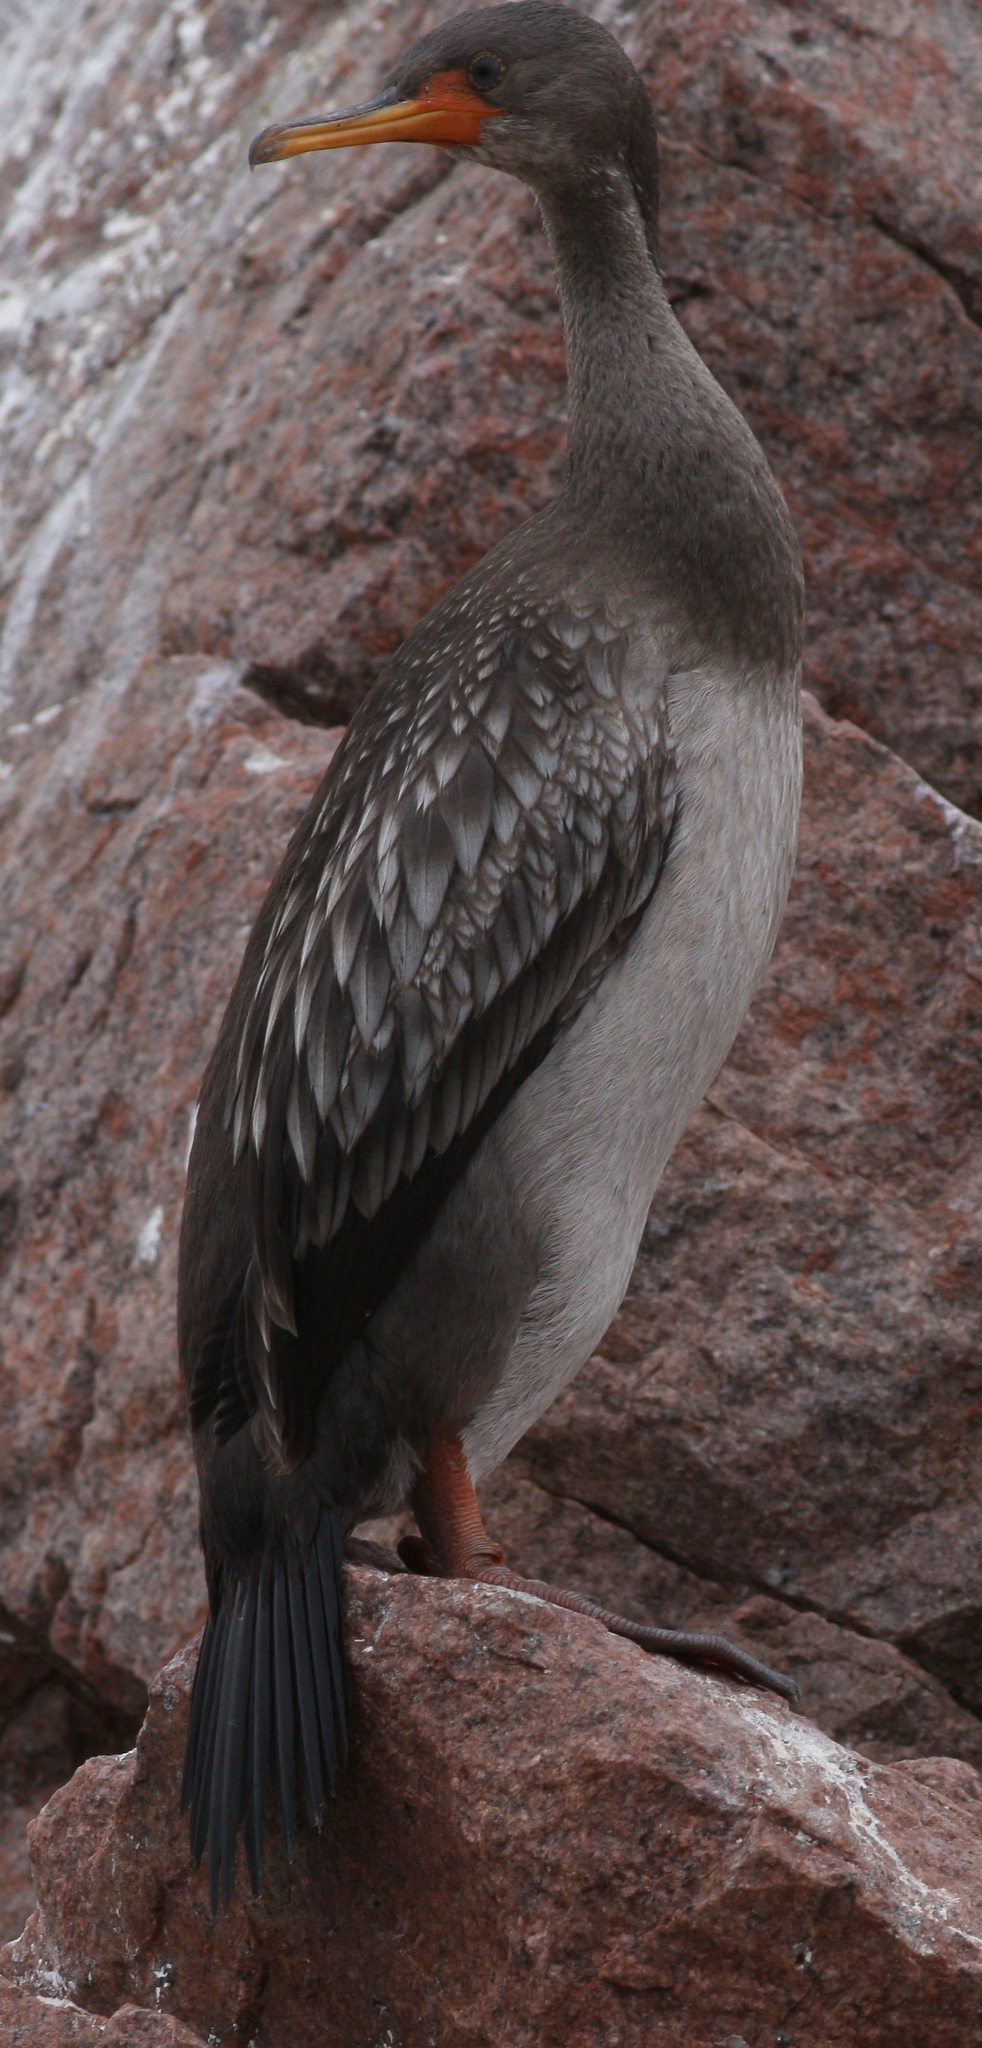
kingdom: Animalia
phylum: Chordata
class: Aves
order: Suliformes
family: Phalacrocoracidae
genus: Phalacrocorax
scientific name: Phalacrocorax gaimardi
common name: Red-legged cormorant
